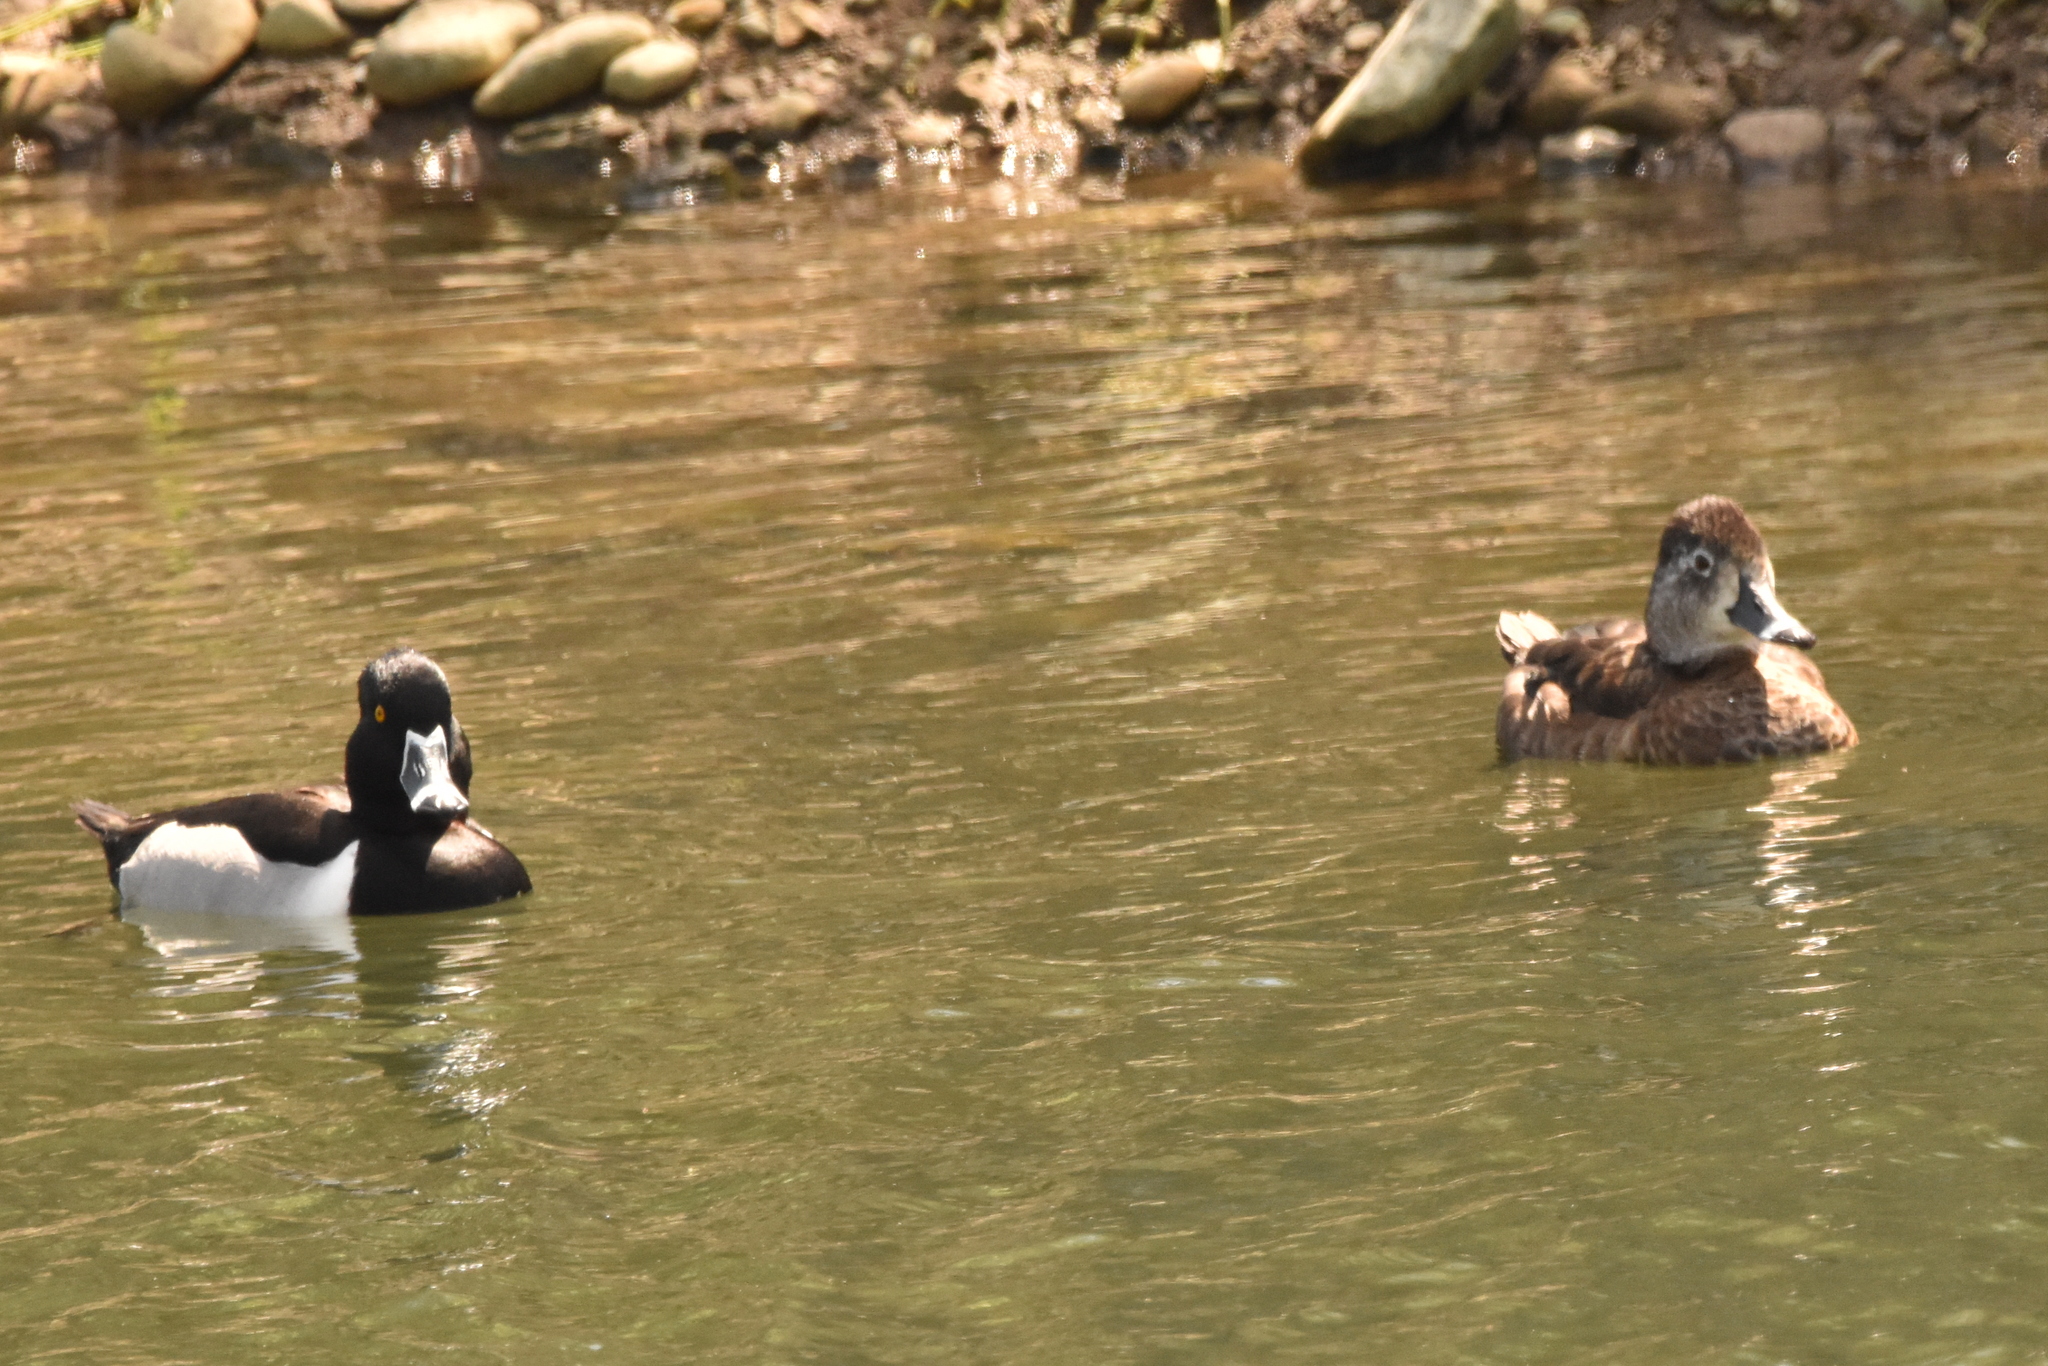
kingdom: Animalia
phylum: Chordata
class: Aves
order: Anseriformes
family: Anatidae
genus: Aythya
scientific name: Aythya collaris
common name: Ring-necked duck
